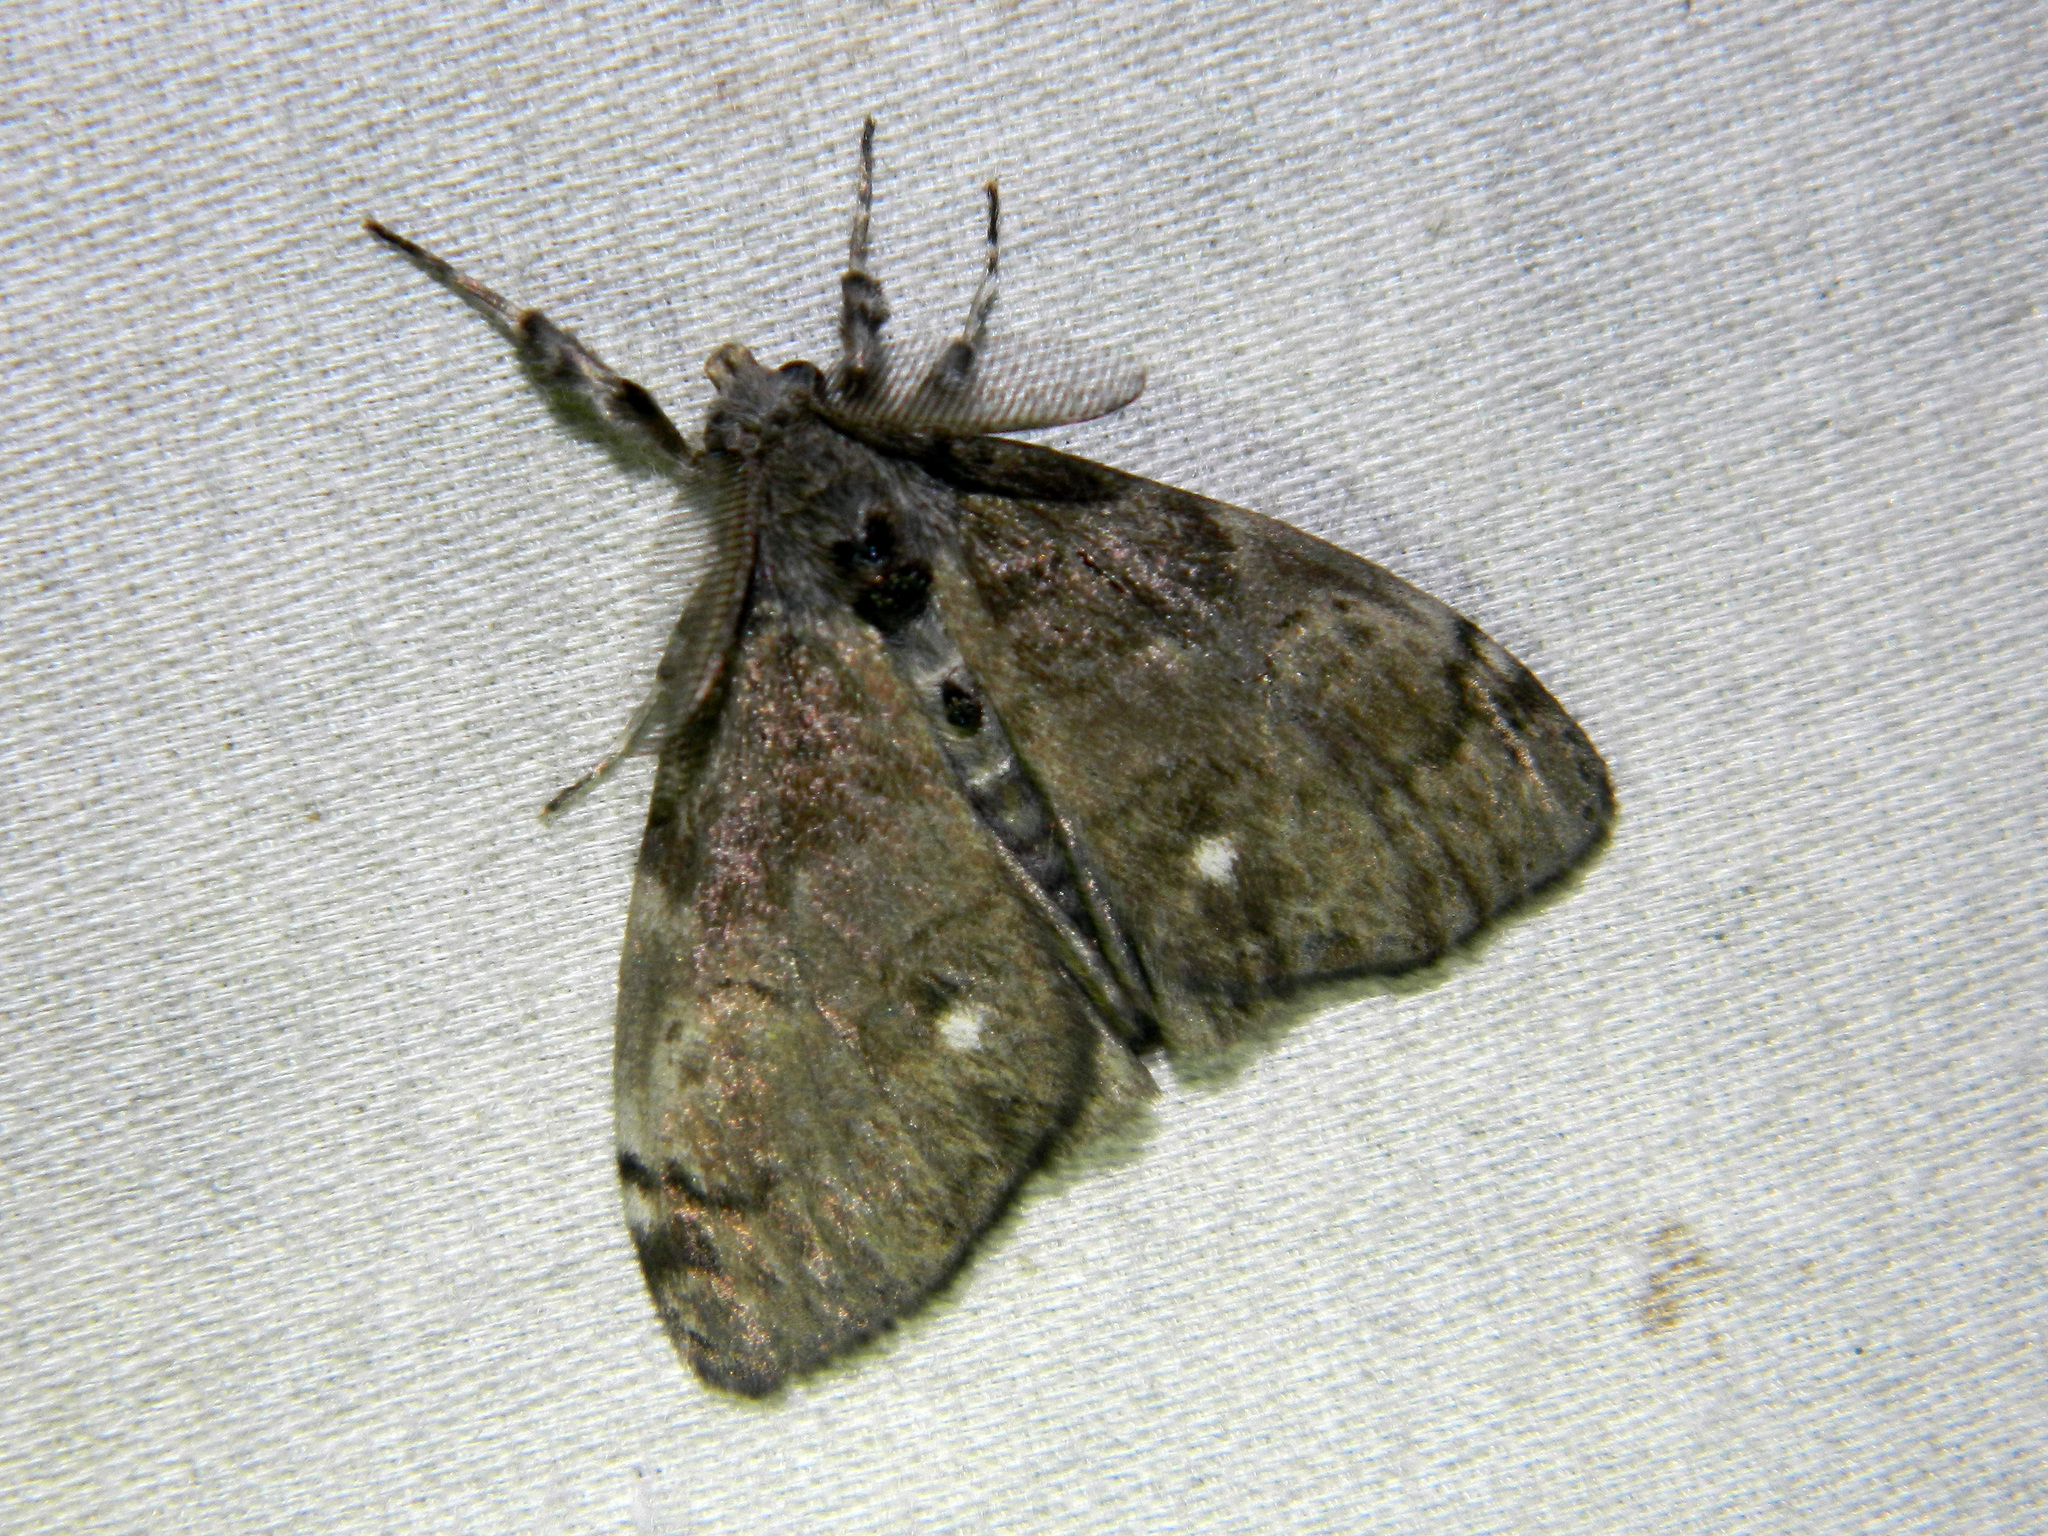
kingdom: Animalia
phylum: Arthropoda
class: Insecta
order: Lepidoptera
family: Erebidae
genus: Orgyia
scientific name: Orgyia leucostigma
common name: White-marked tussock moth
